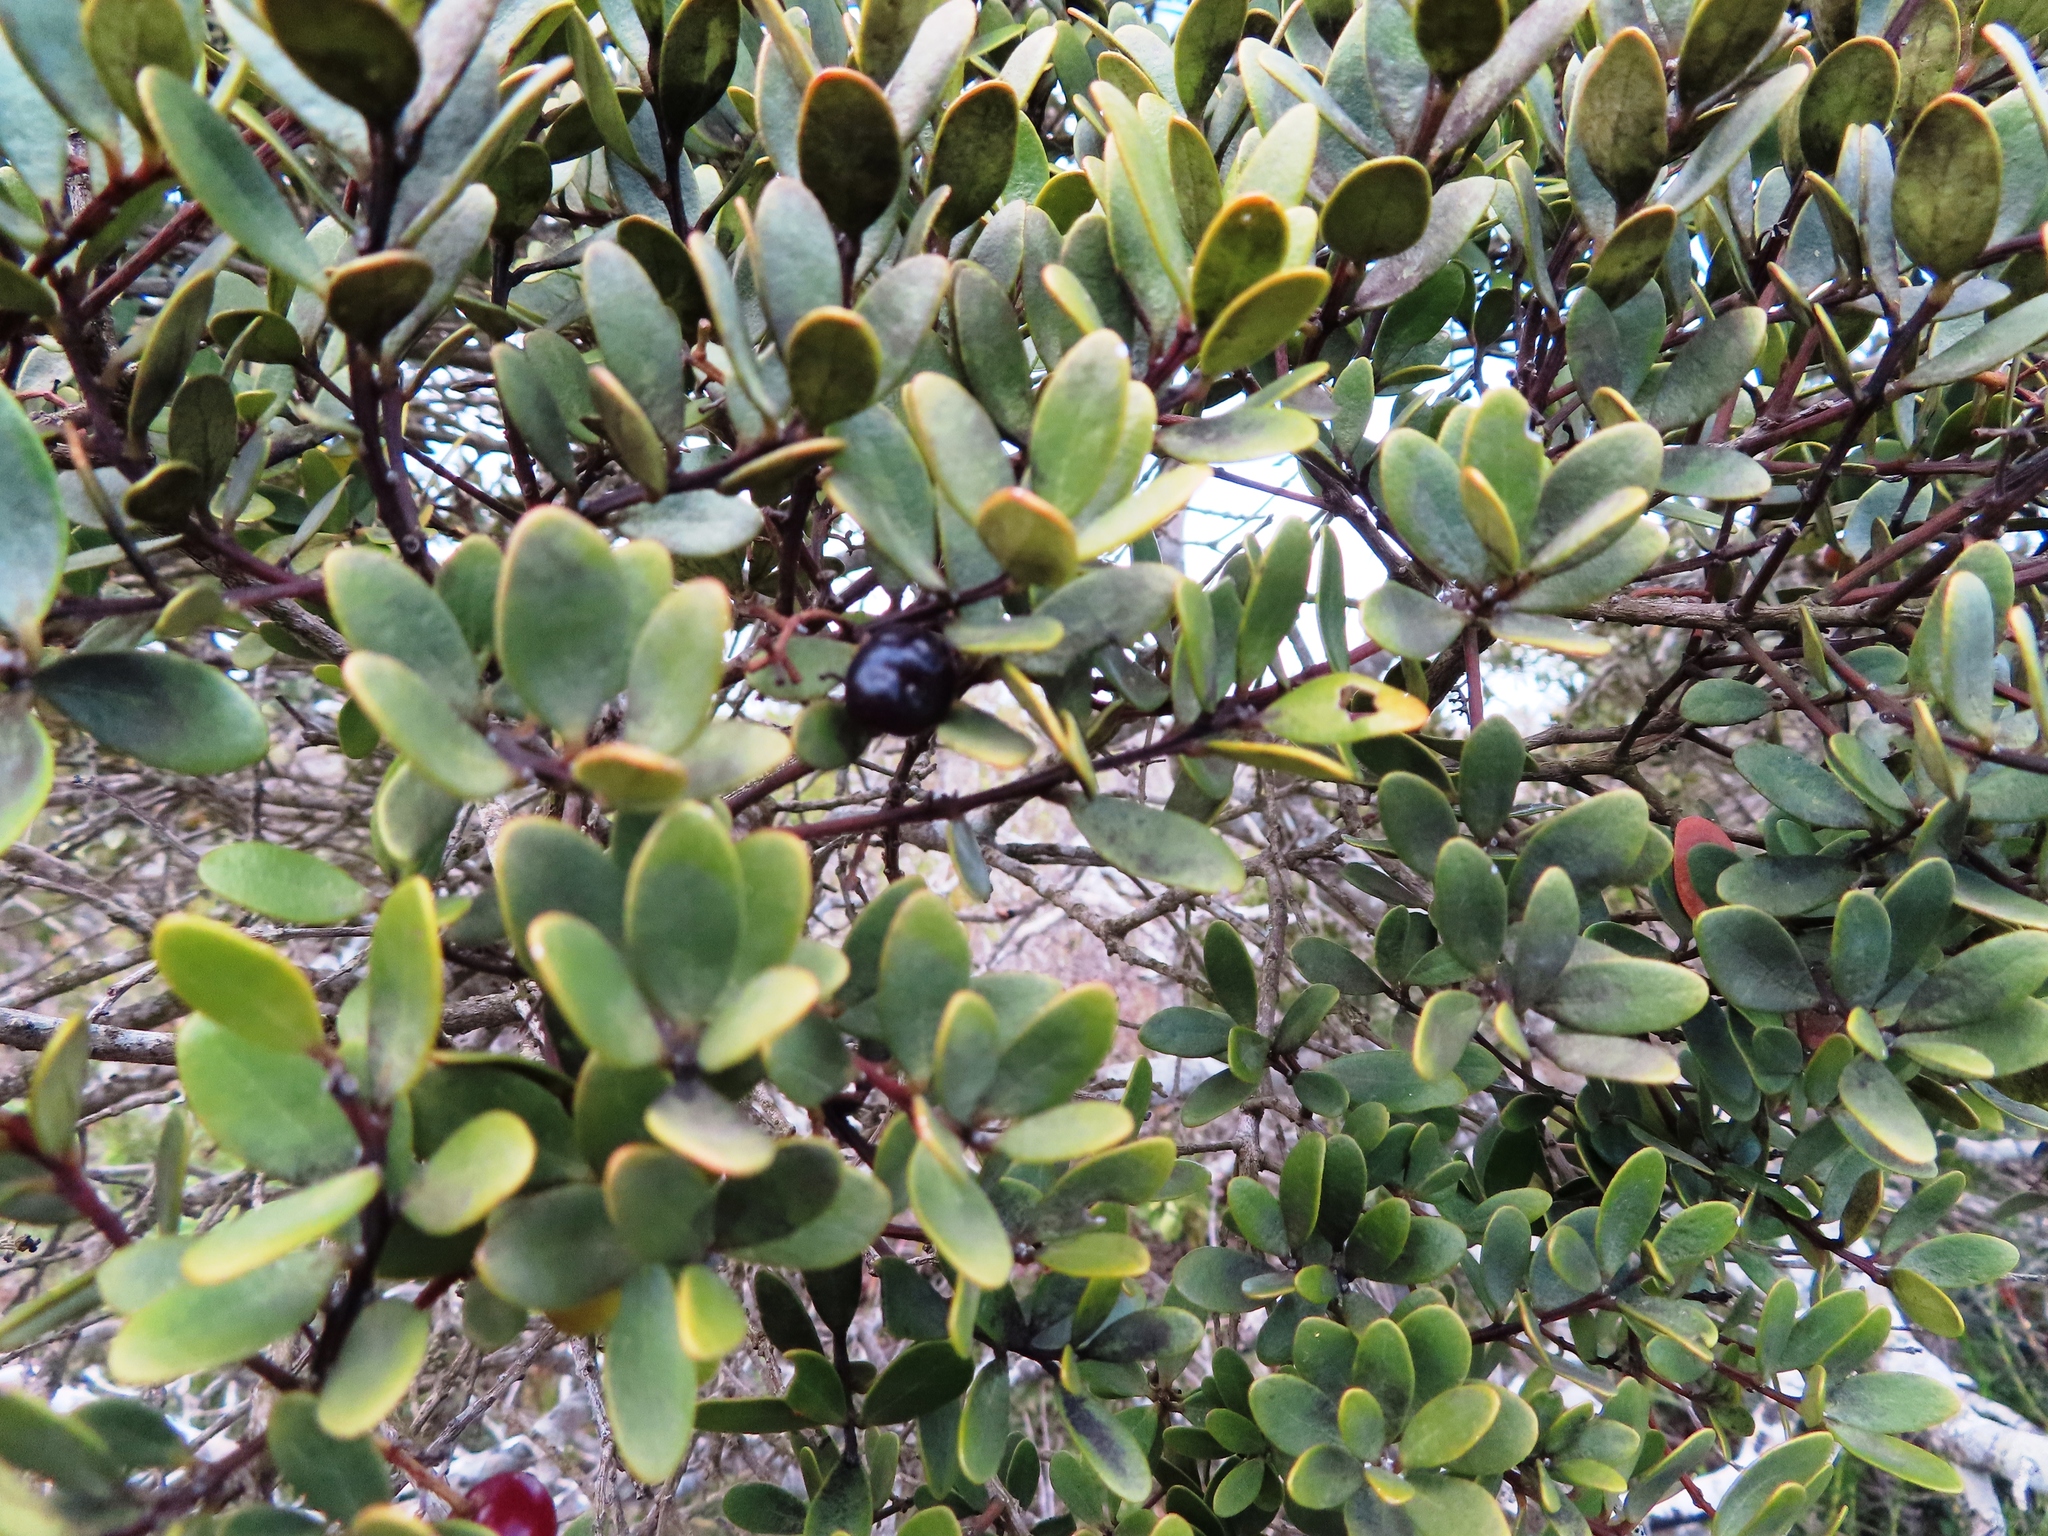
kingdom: Plantae
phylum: Tracheophyta
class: Magnoliopsida
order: Ericales
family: Ebenaceae
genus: Euclea
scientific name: Euclea racemosa
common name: Dune guarri
